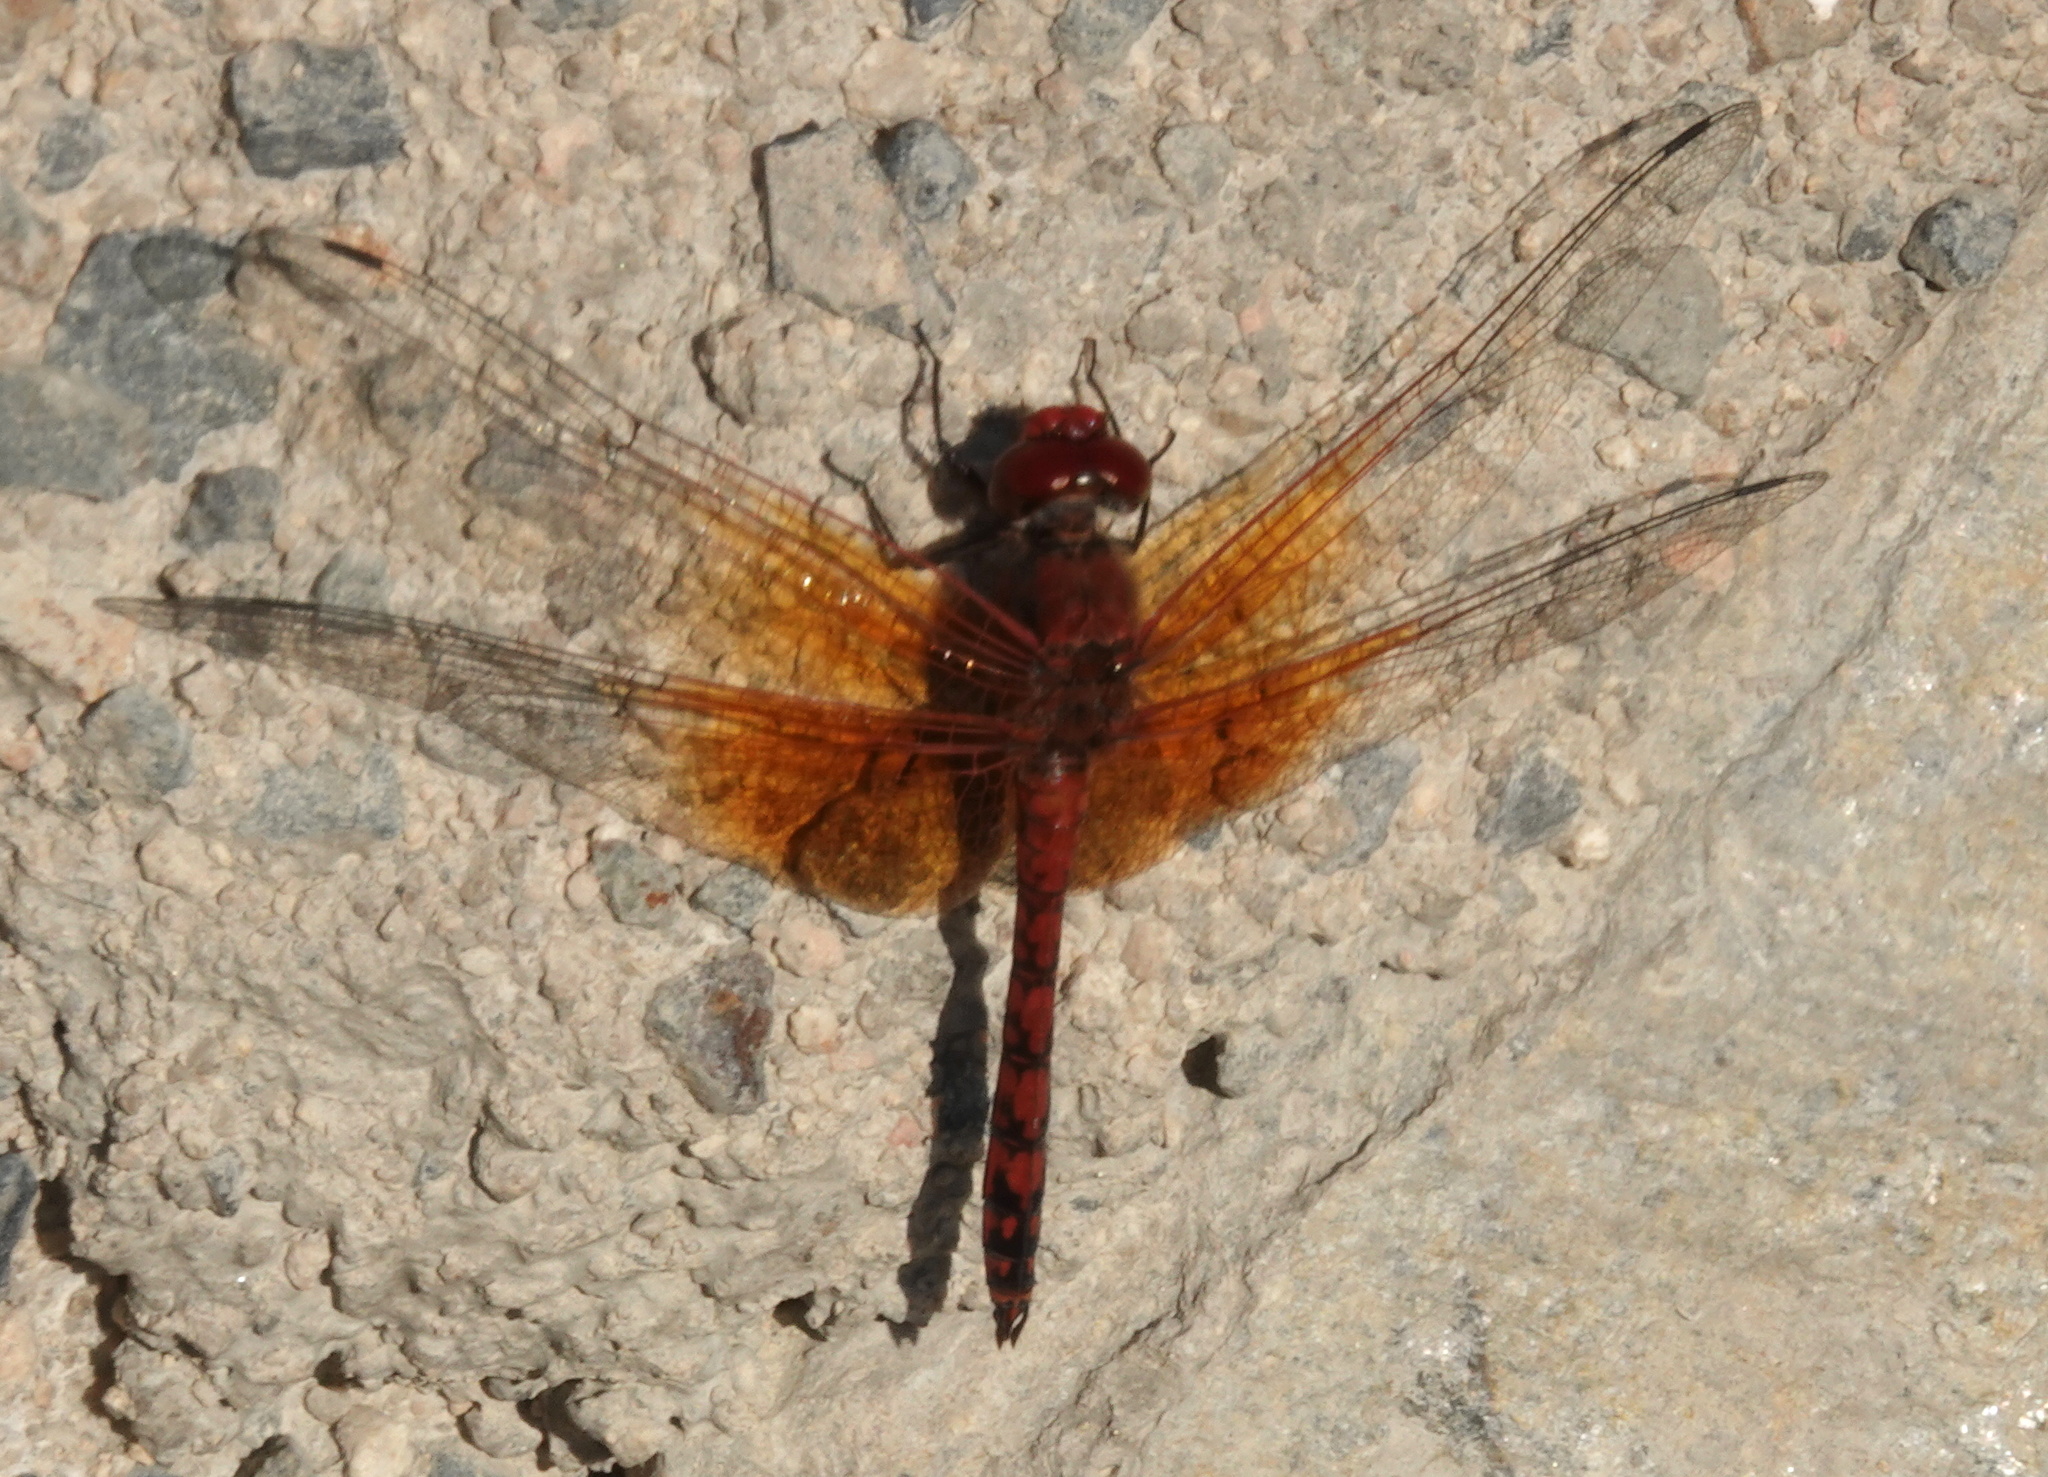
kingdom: Animalia
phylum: Arthropoda
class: Insecta
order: Odonata
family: Libellulidae
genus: Paltothemis
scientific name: Paltothemis lineatipes
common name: Red rock skimmer
